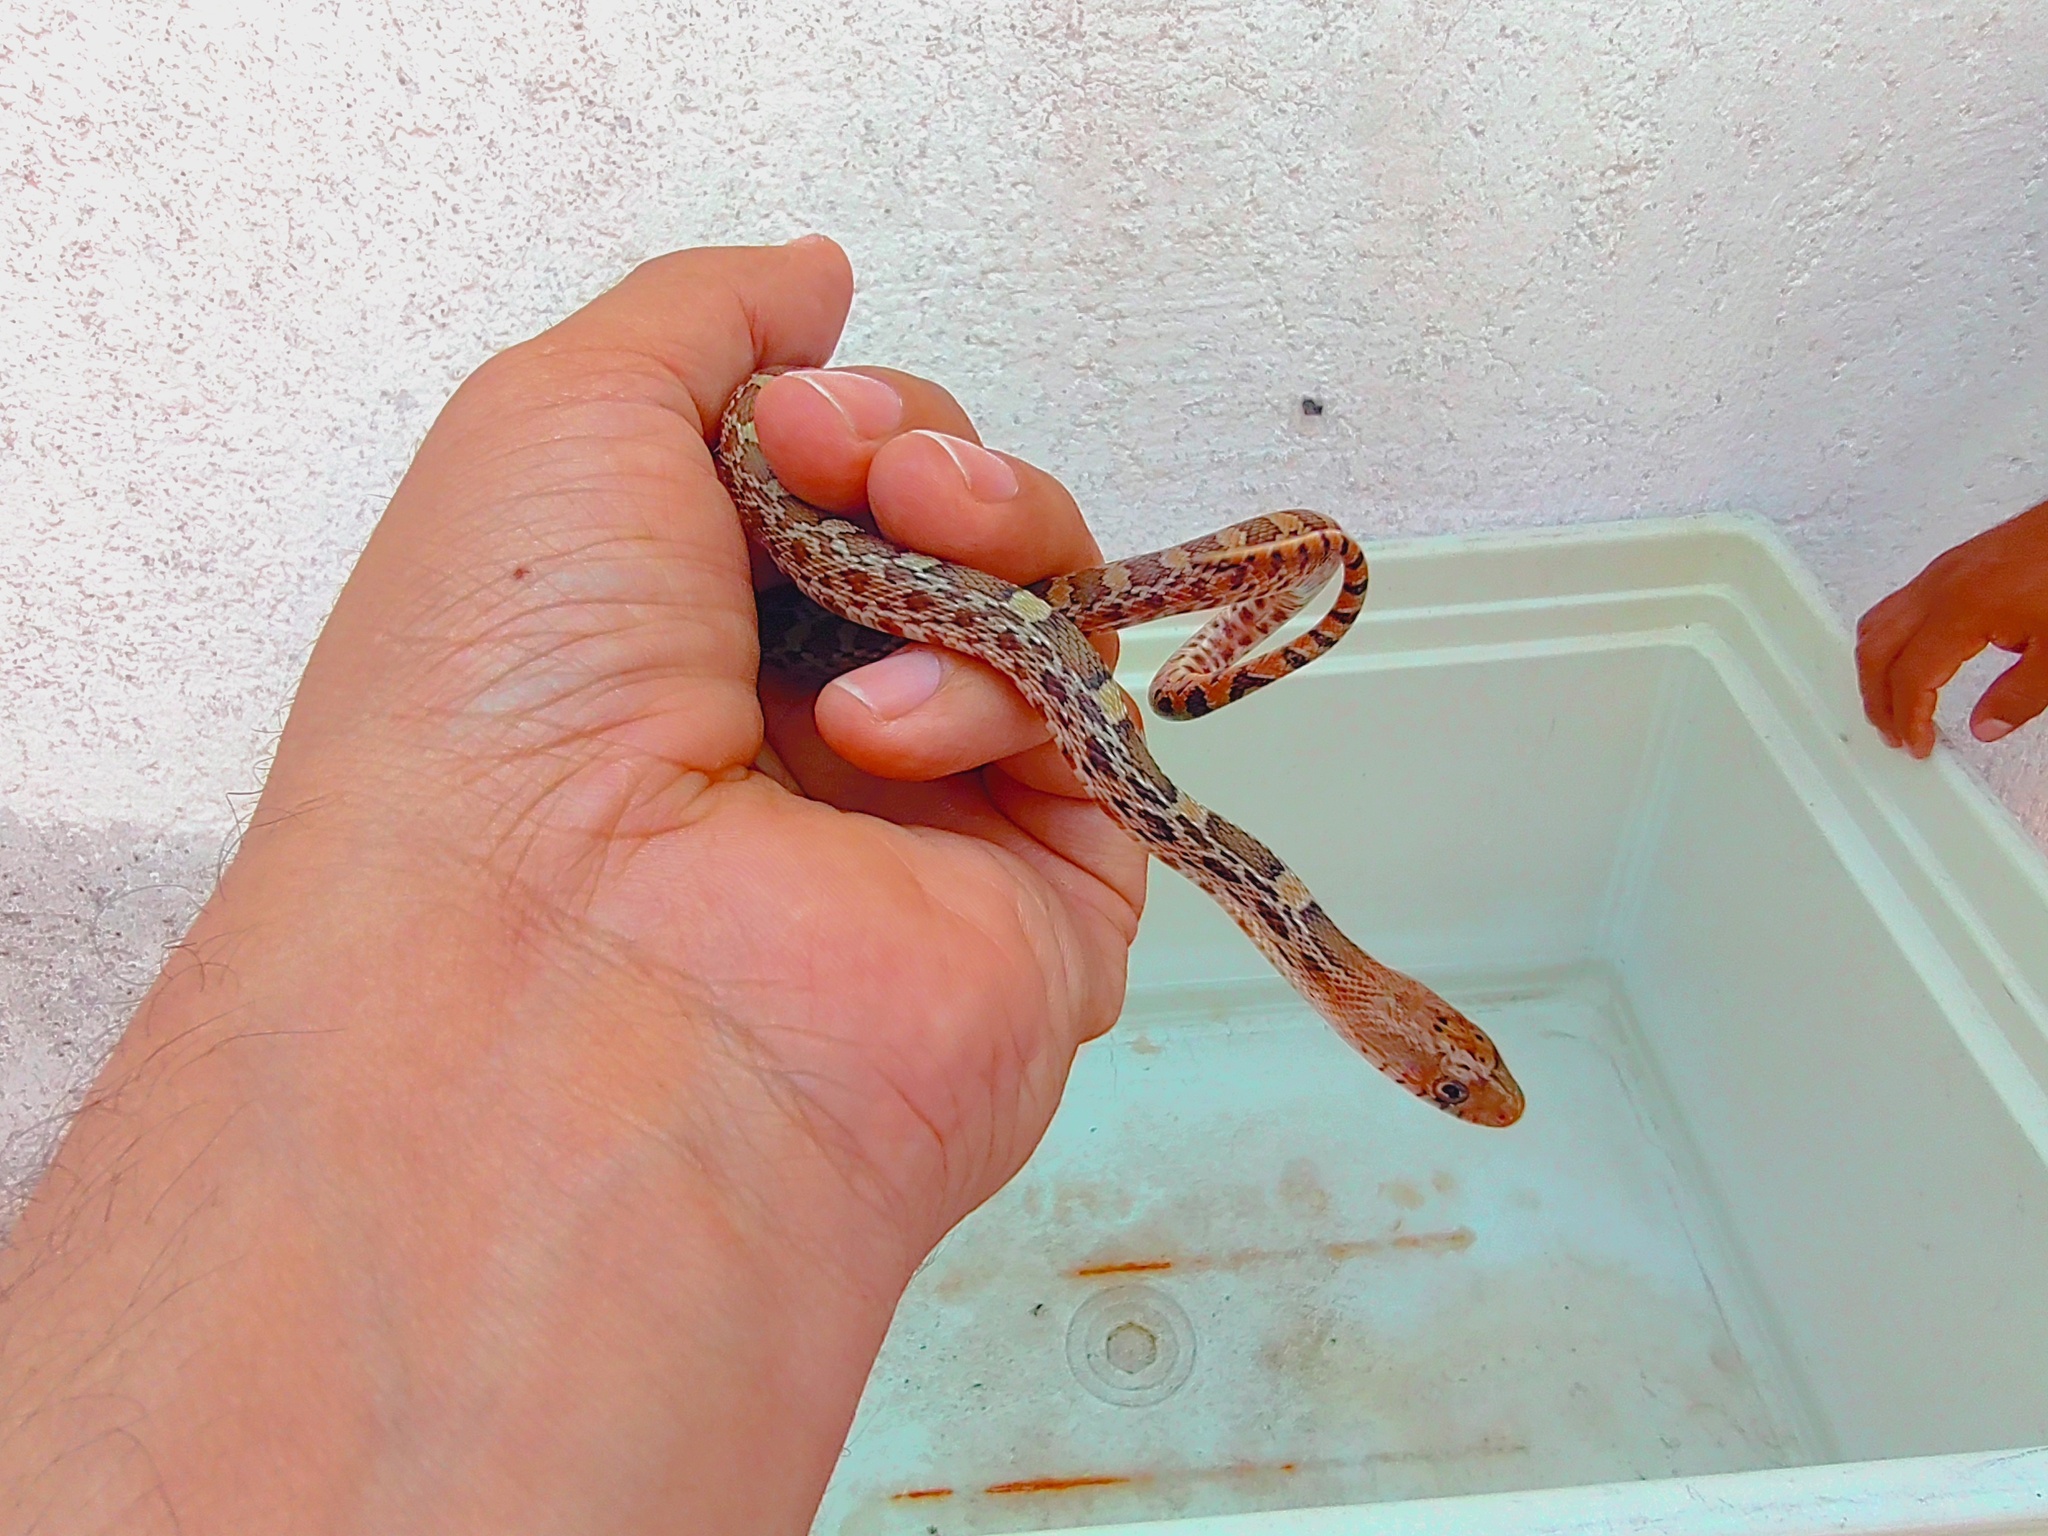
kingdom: Animalia
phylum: Chordata
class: Squamata
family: Colubridae
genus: Pituophis
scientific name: Pituophis deppei
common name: Mexican bull snake
